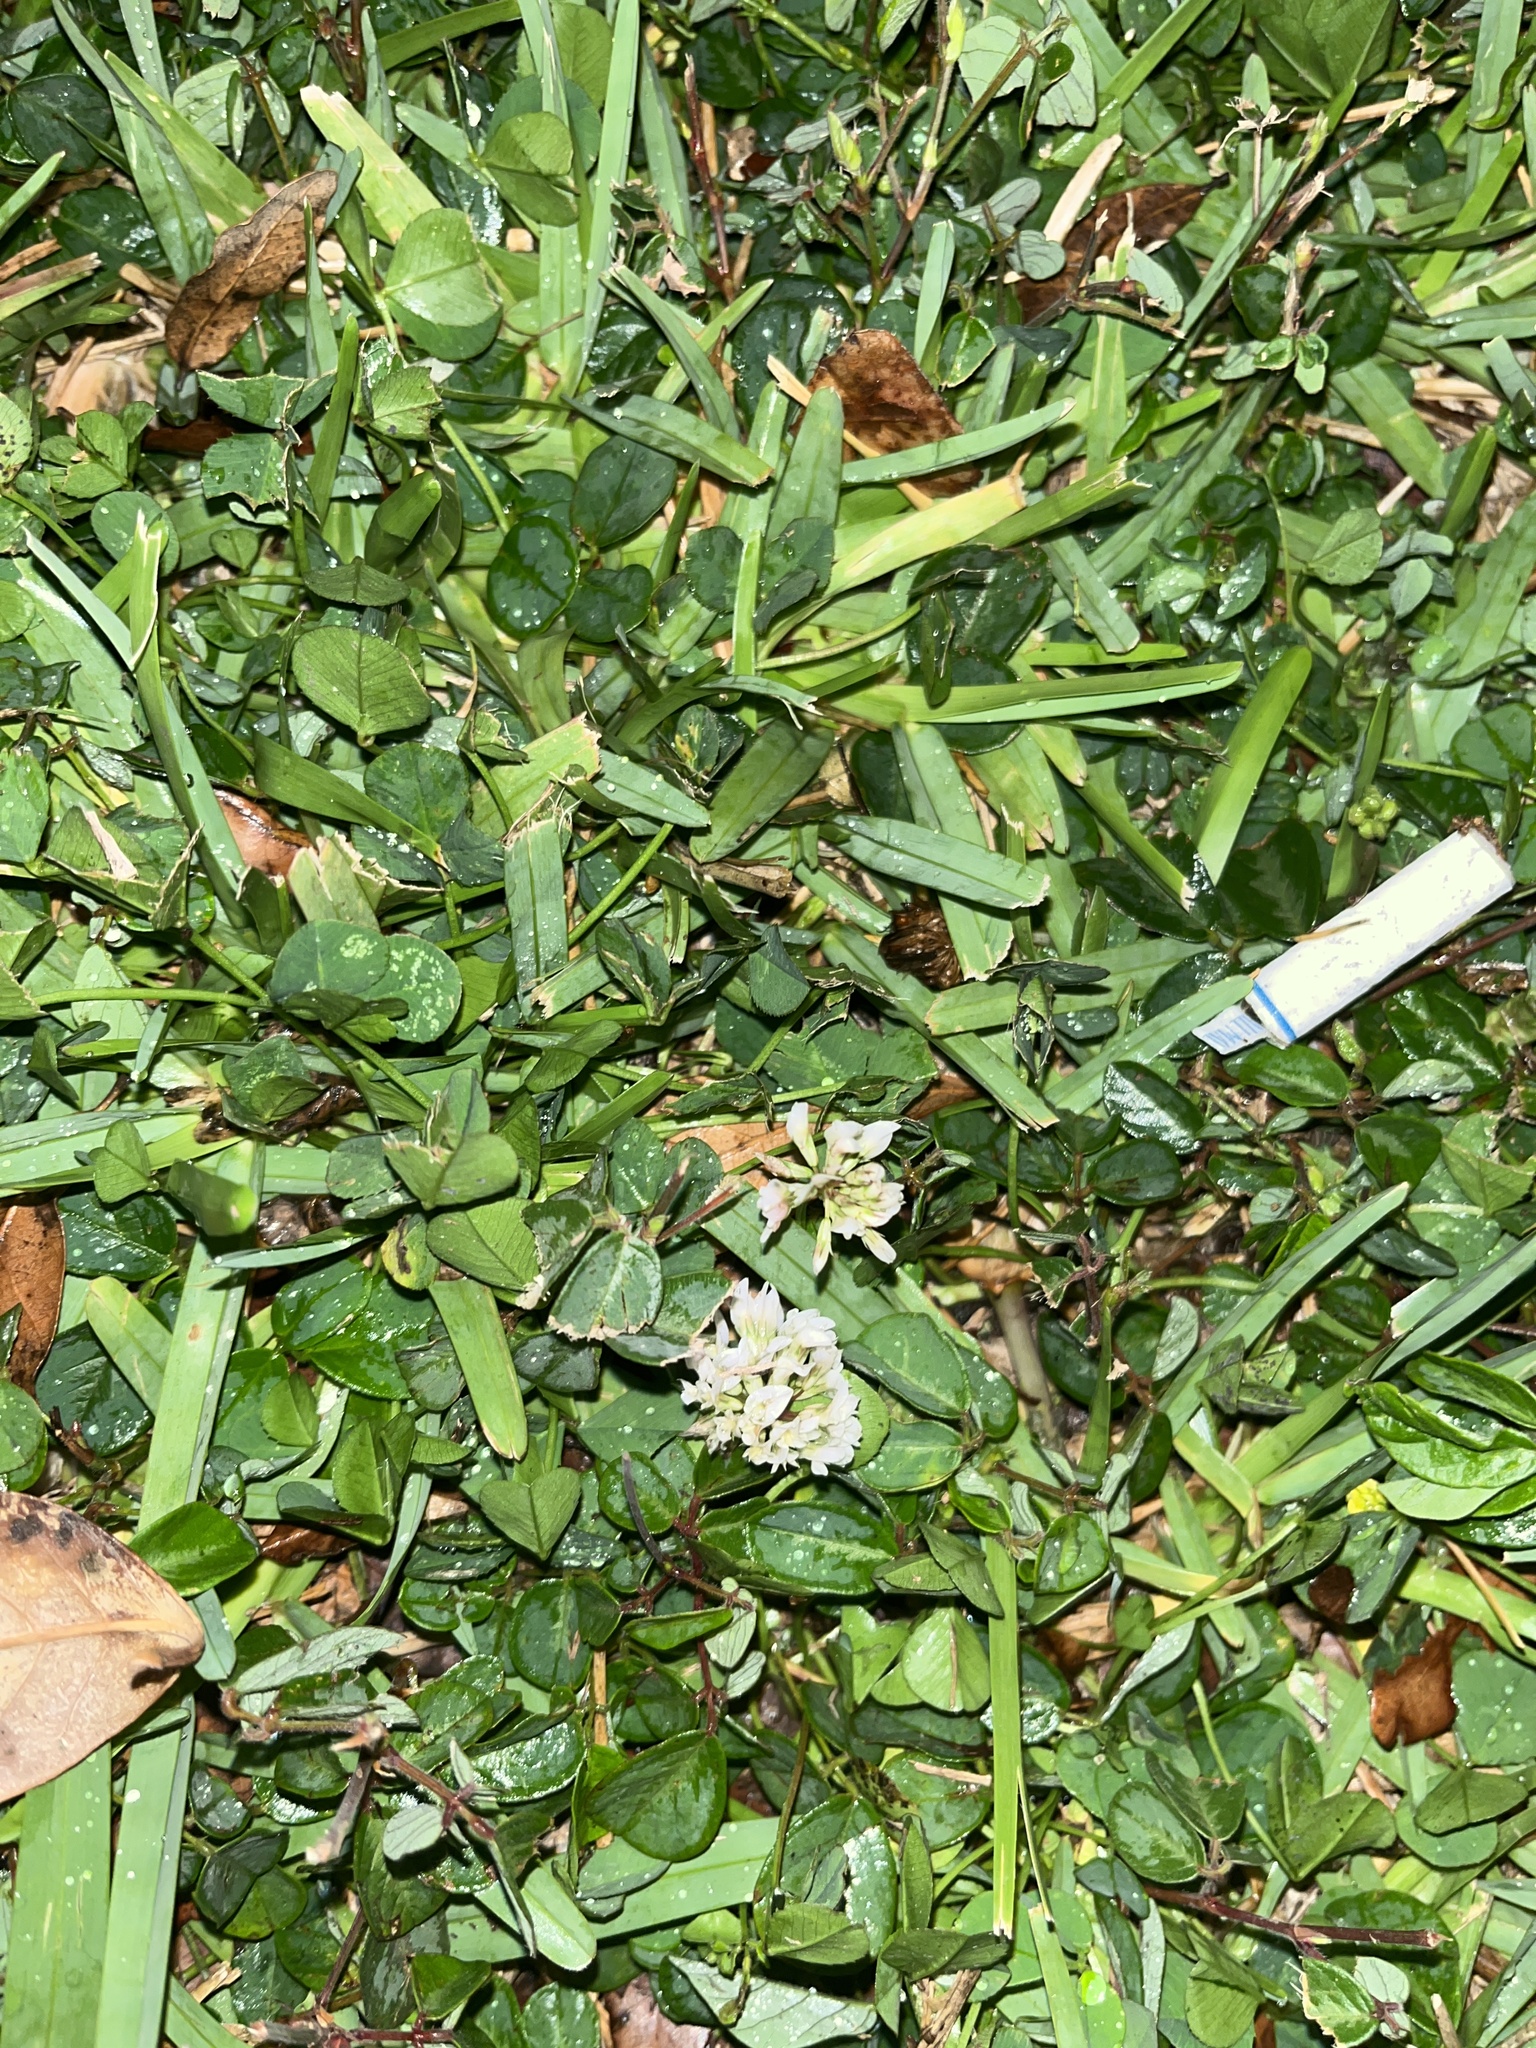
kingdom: Plantae
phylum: Tracheophyta
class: Magnoliopsida
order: Fabales
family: Fabaceae
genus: Trifolium
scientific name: Trifolium repens
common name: White clover
